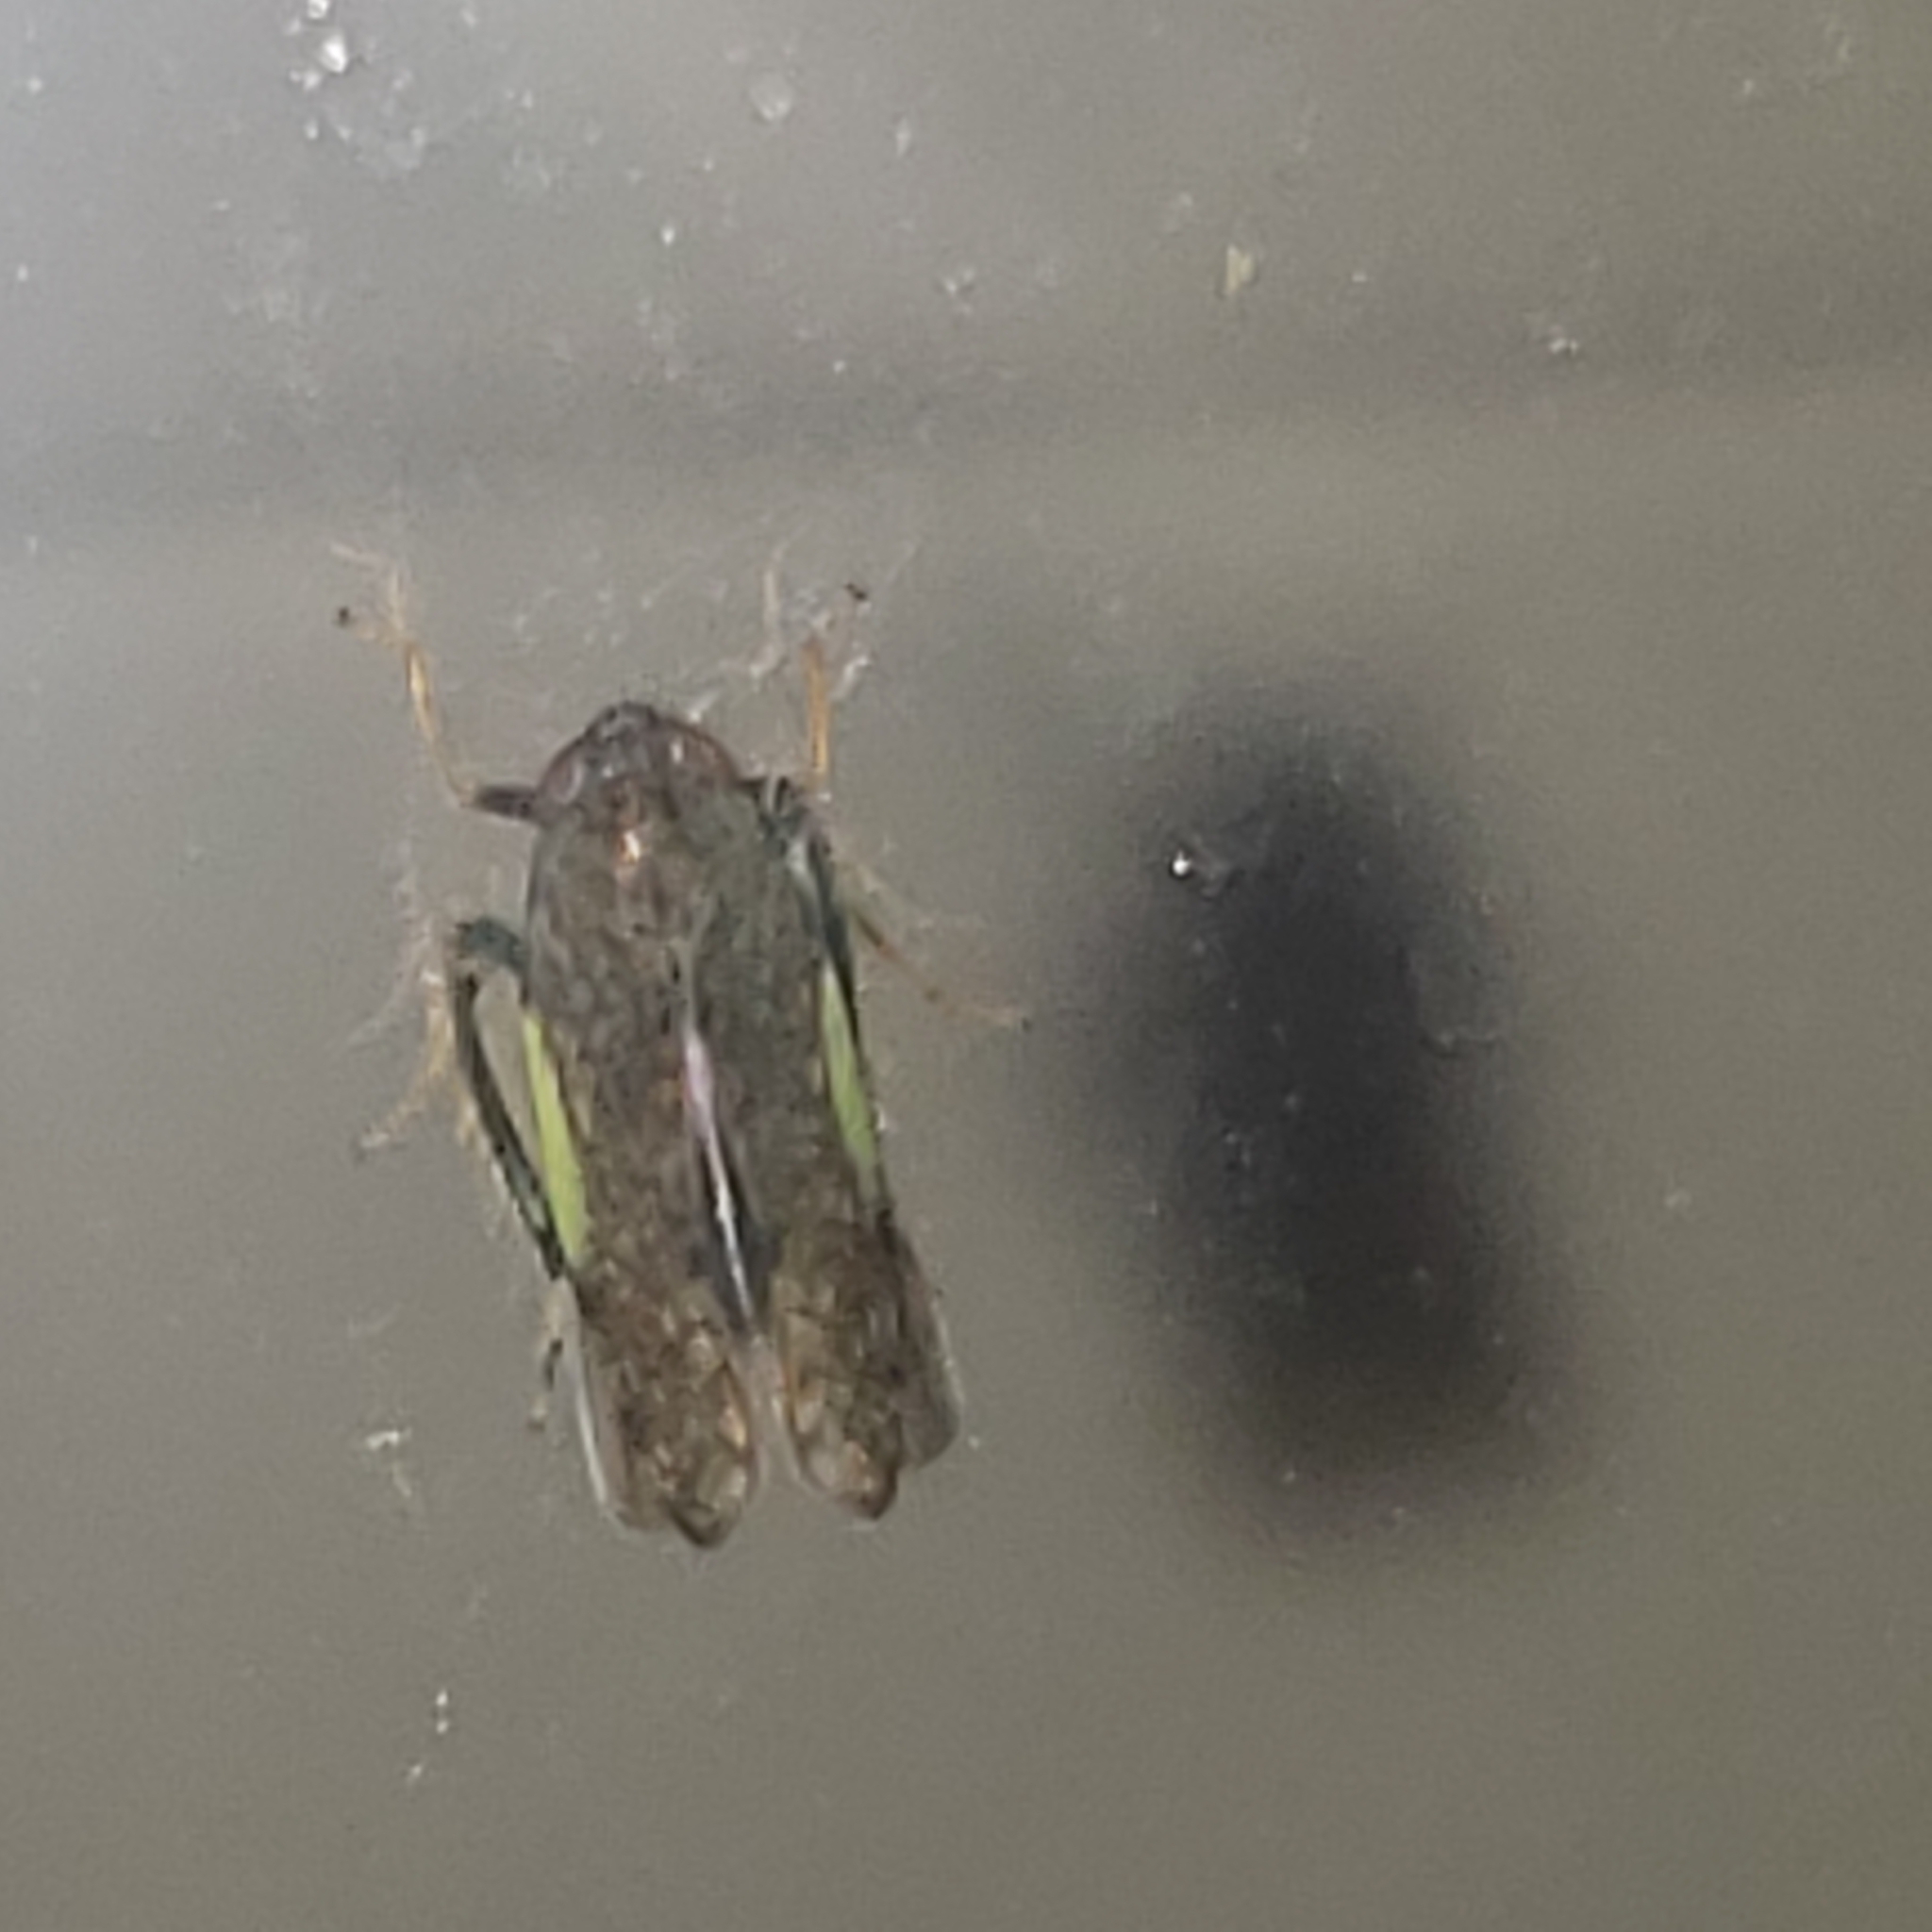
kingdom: Animalia
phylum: Arthropoda
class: Insecta
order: Hemiptera
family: Cicadellidae
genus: Orientus
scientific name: Orientus ishidae
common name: Japanese leafhopper
